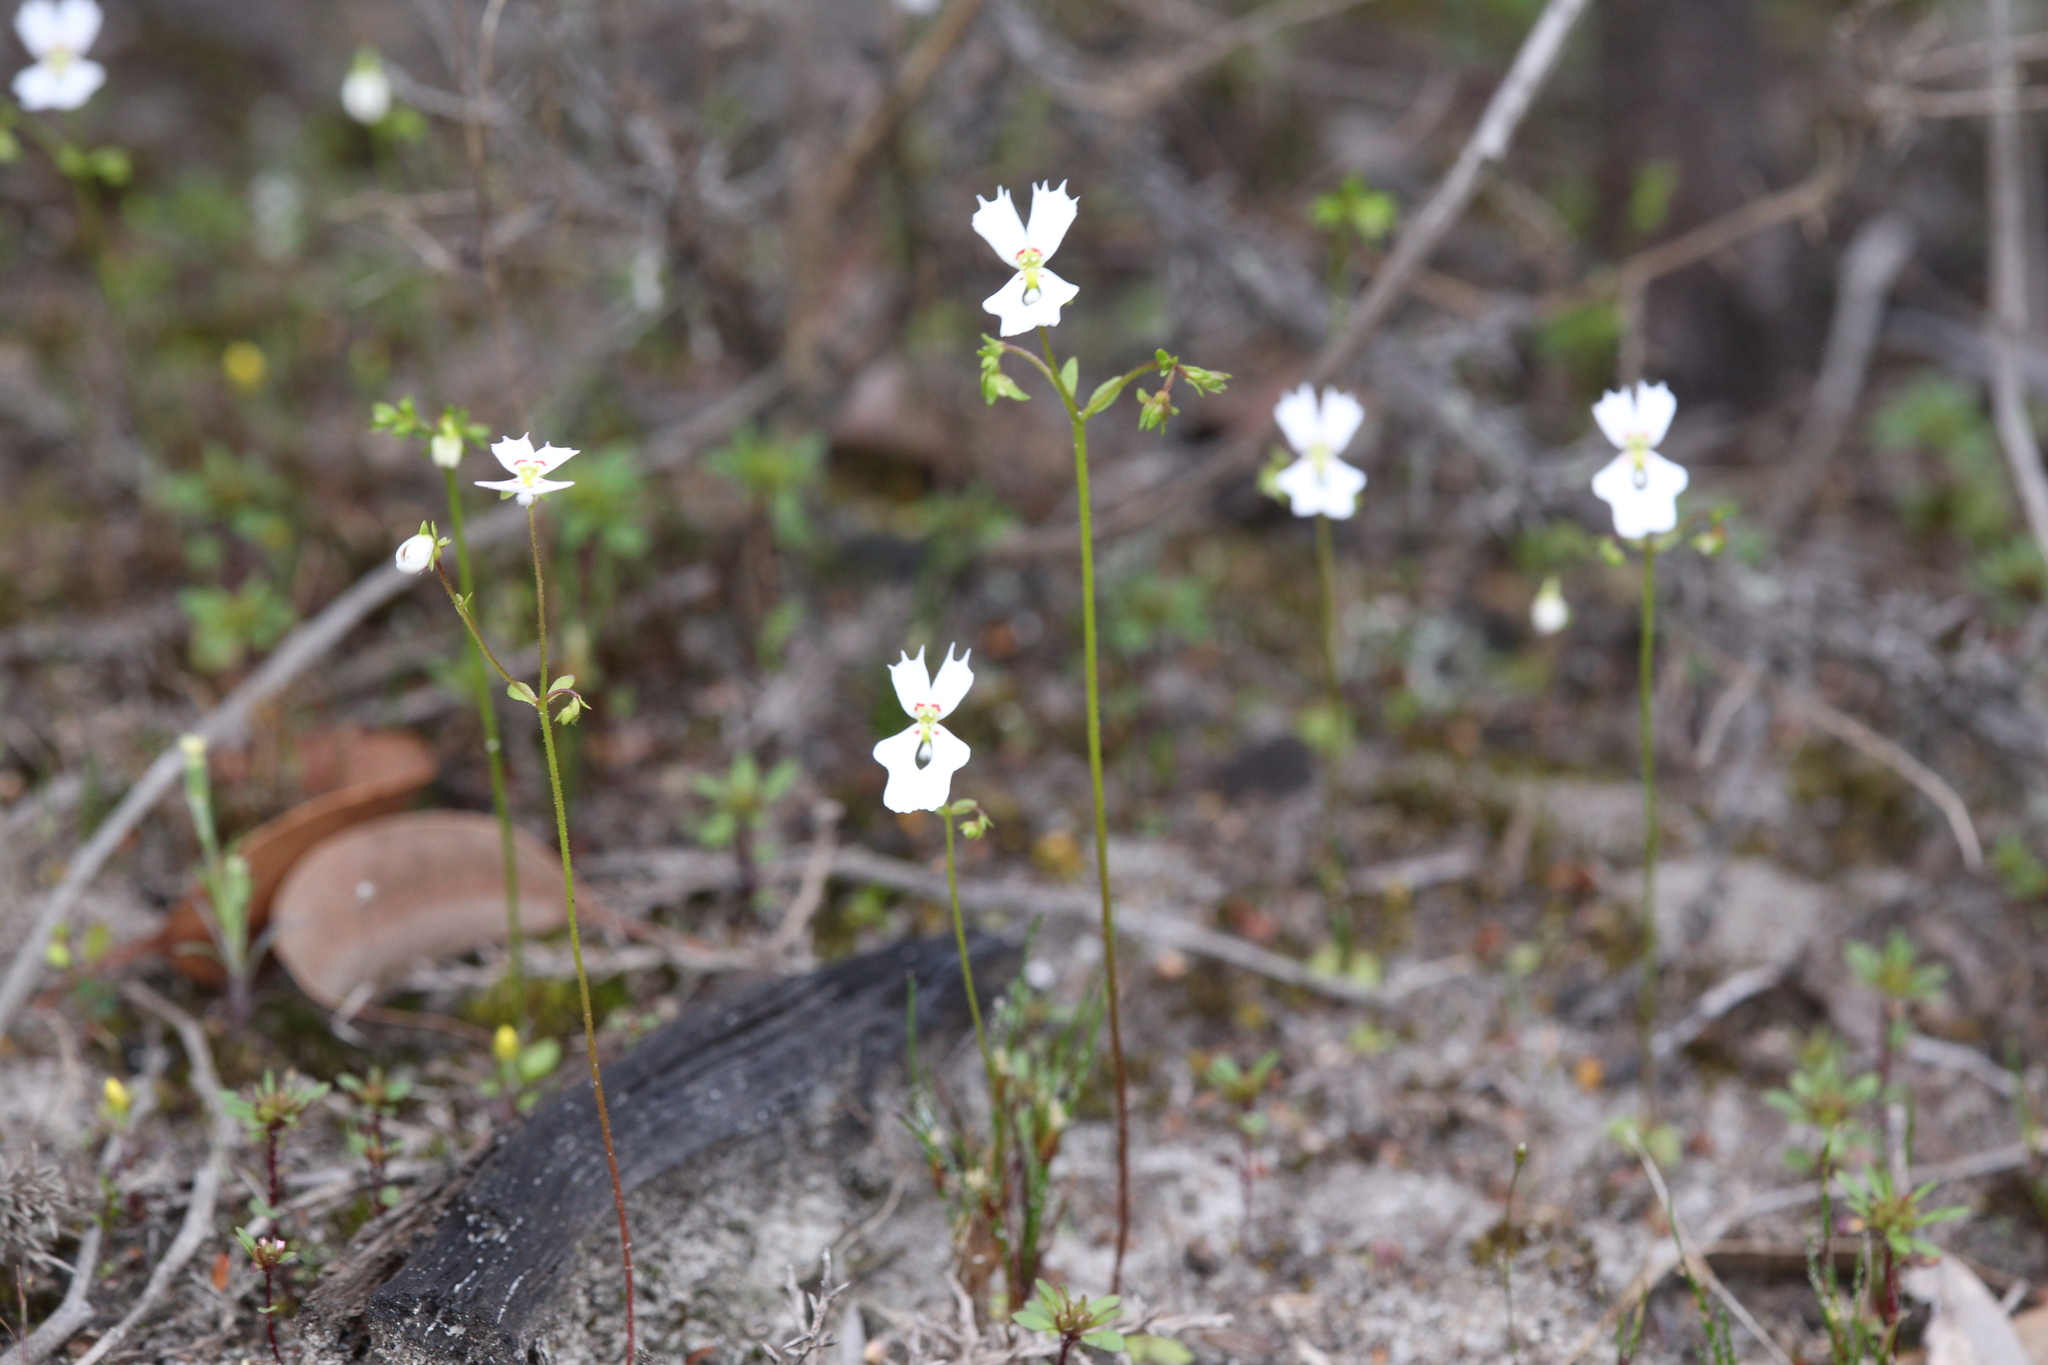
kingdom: Plantae
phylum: Tracheophyta
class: Magnoliopsida
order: Asterales
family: Stylidiaceae
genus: Stylidium
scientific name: Stylidium androsaceum
